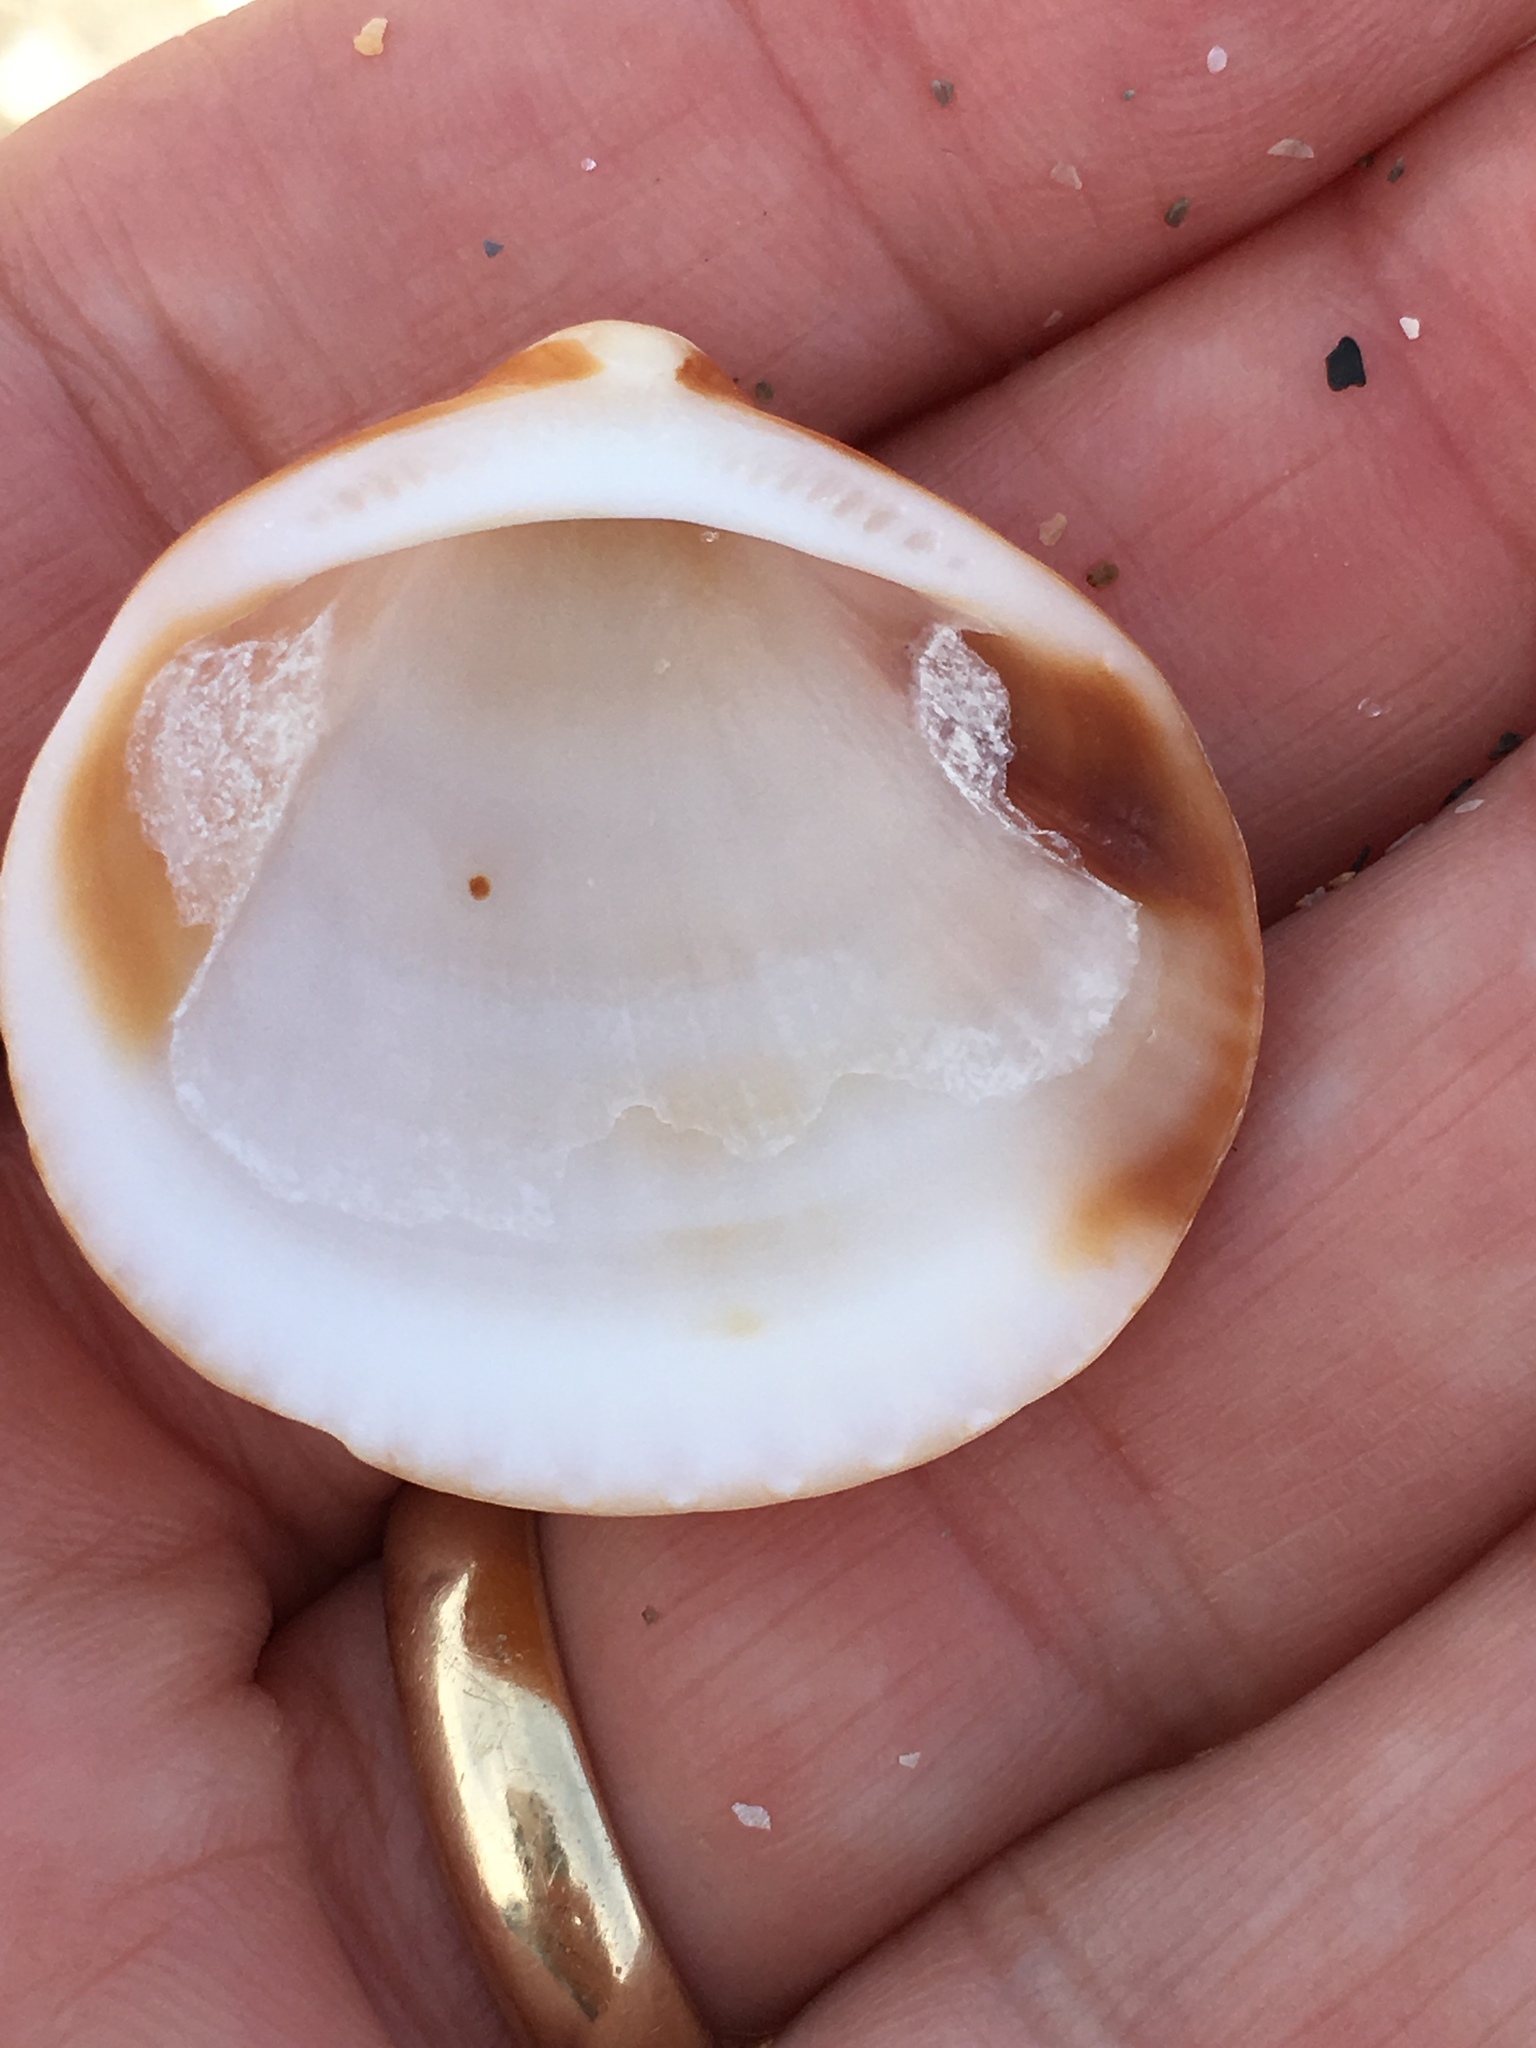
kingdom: Animalia
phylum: Mollusca
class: Bivalvia
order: Arcida
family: Glycymerididae
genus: Glycymeris
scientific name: Glycymeris spectralis
